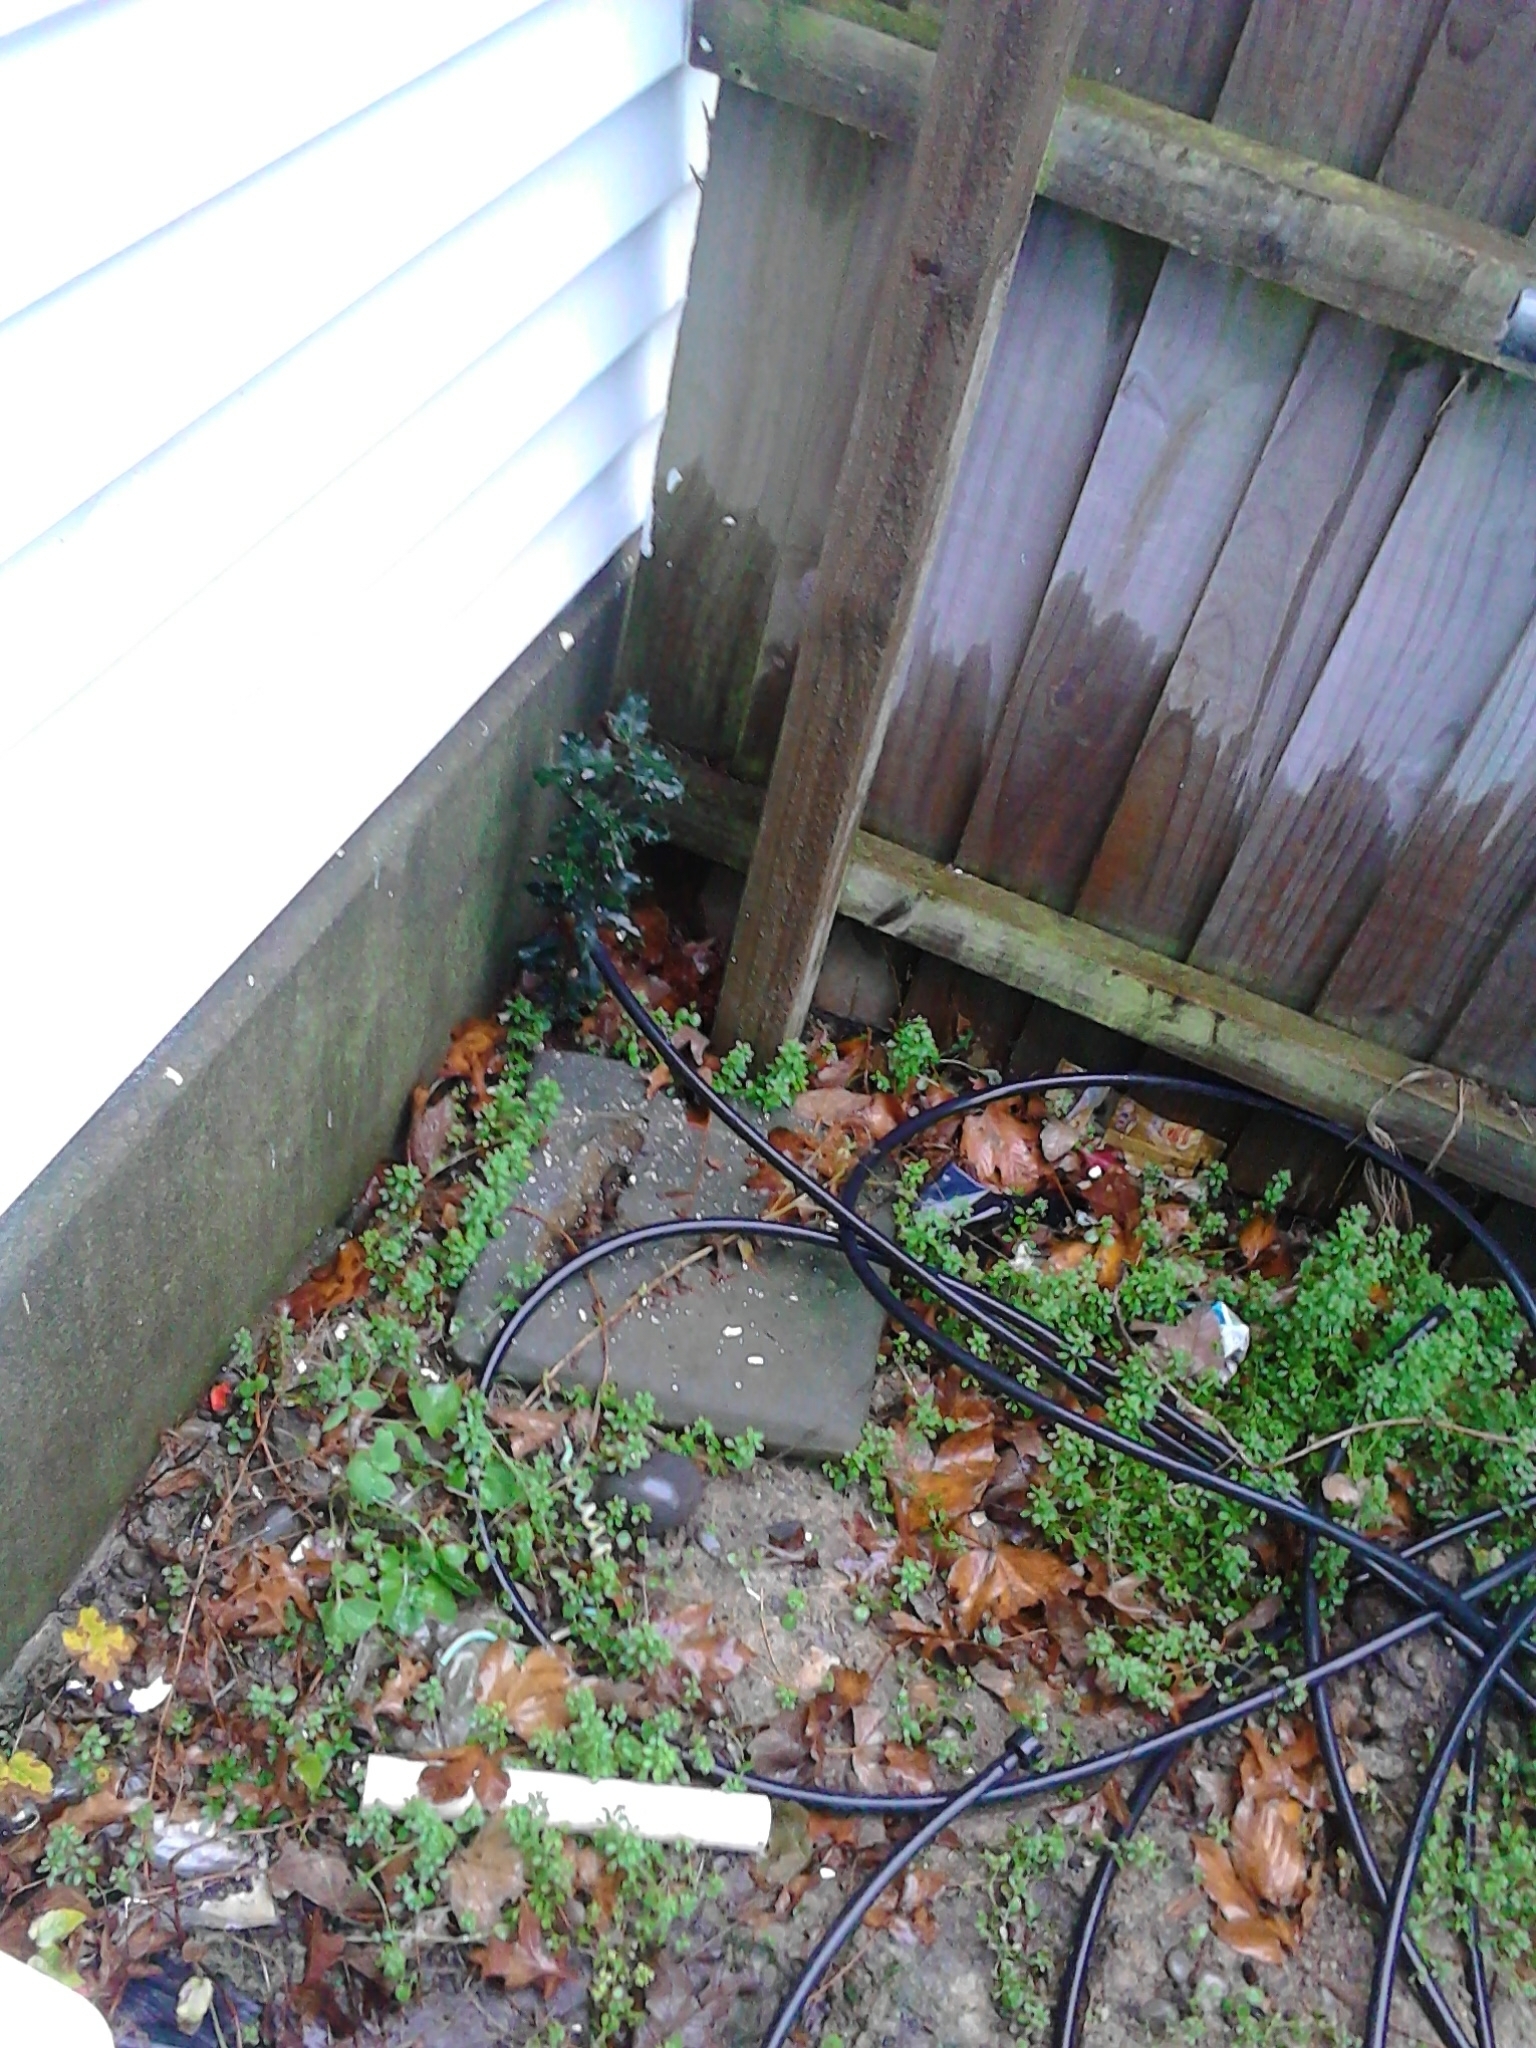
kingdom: Plantae
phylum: Tracheophyta
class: Magnoliopsida
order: Aquifoliales
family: Aquifoliaceae
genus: Ilex
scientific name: Ilex aquifolium
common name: English holly
